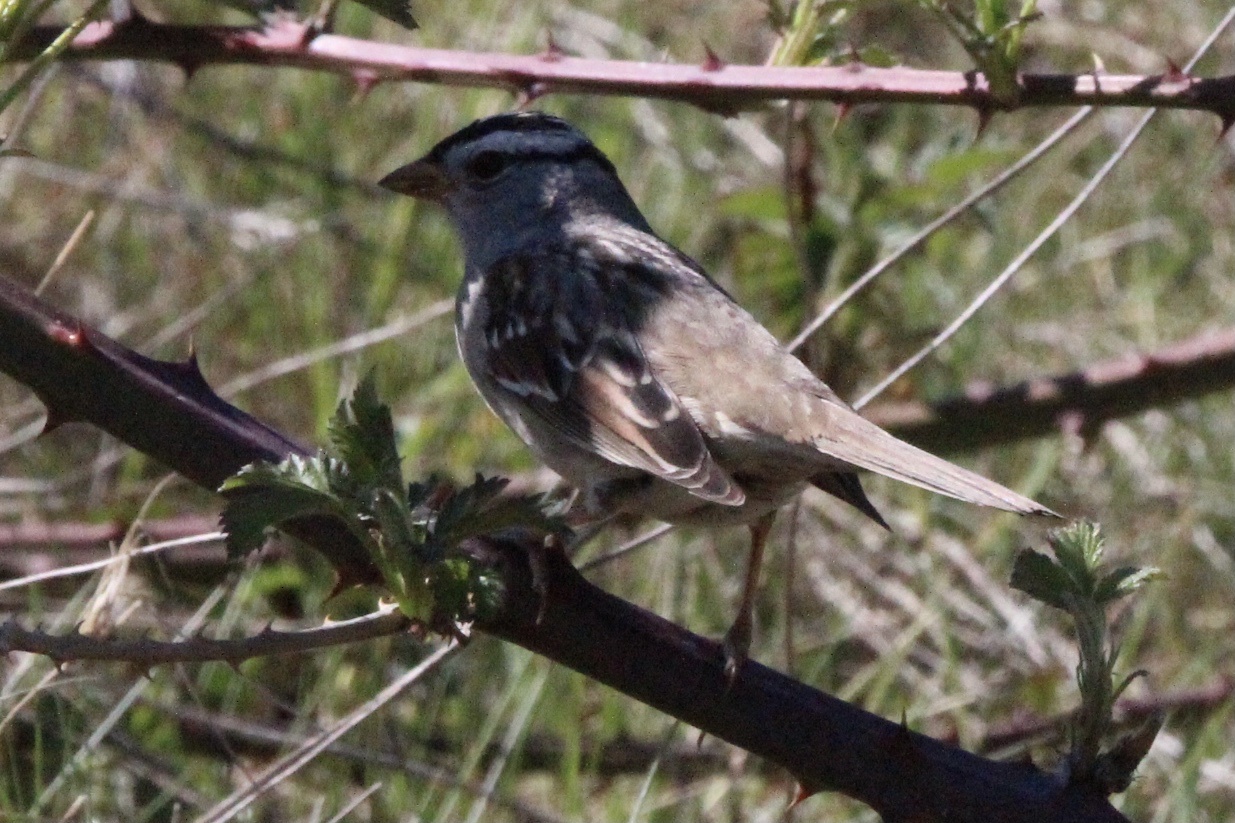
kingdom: Animalia
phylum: Chordata
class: Aves
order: Passeriformes
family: Passerellidae
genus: Zonotrichia
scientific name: Zonotrichia leucophrys
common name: White-crowned sparrow
